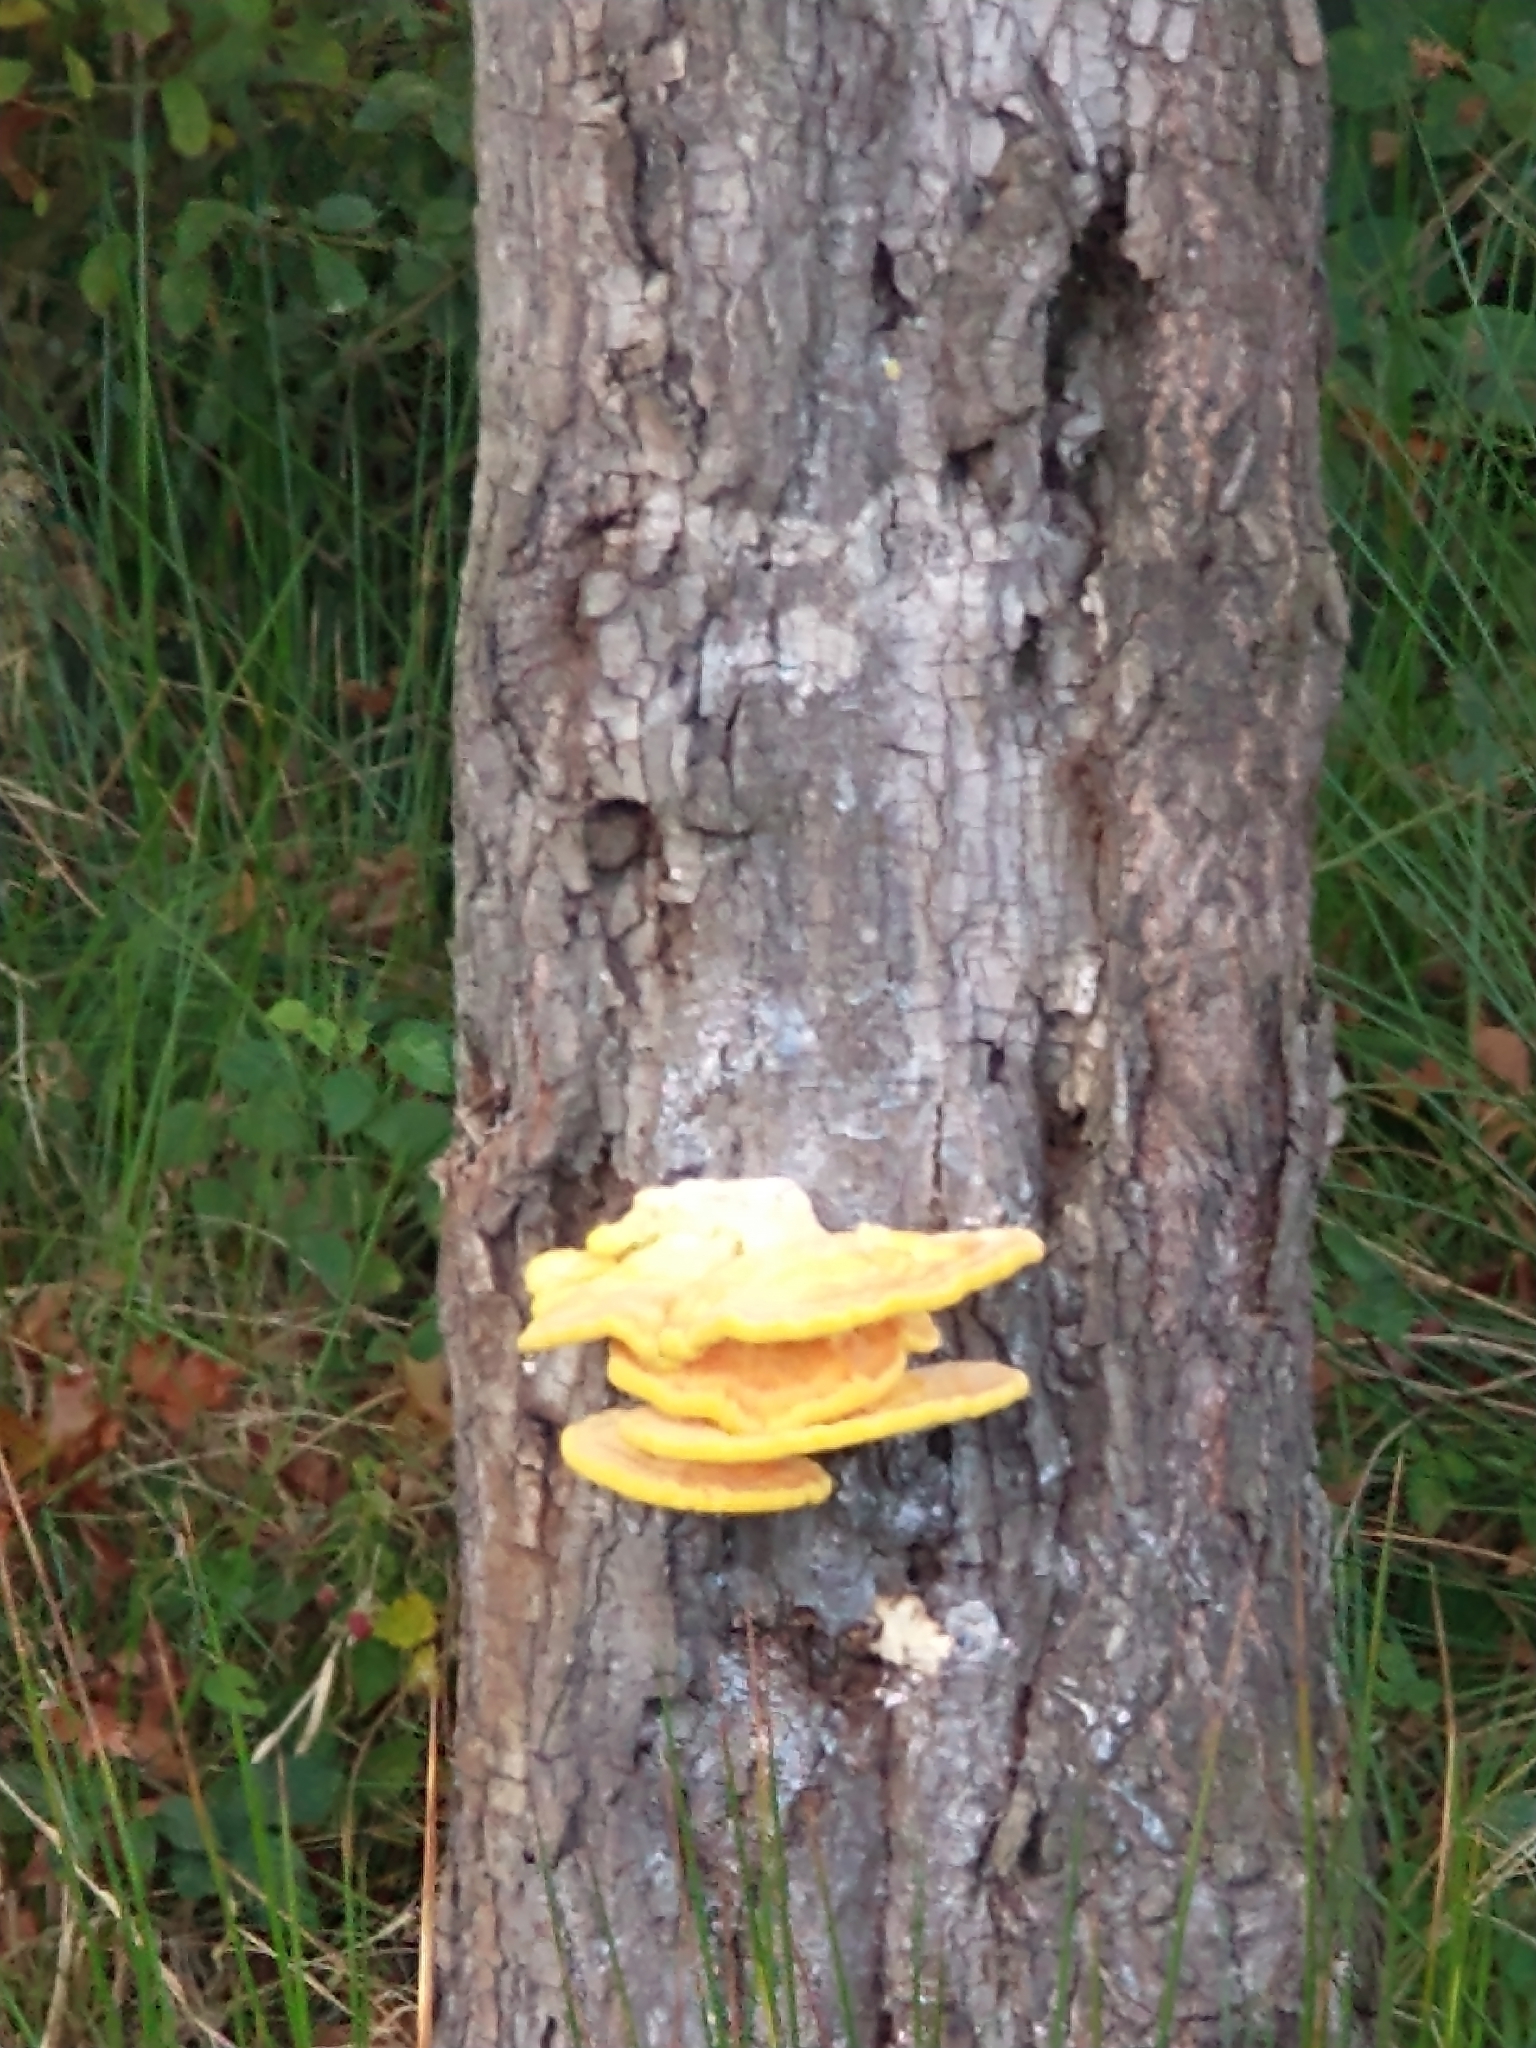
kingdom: Fungi
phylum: Basidiomycota
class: Agaricomycetes
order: Polyporales
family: Laetiporaceae
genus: Laetiporus
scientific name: Laetiporus sulphureus
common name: Chicken of the woods
